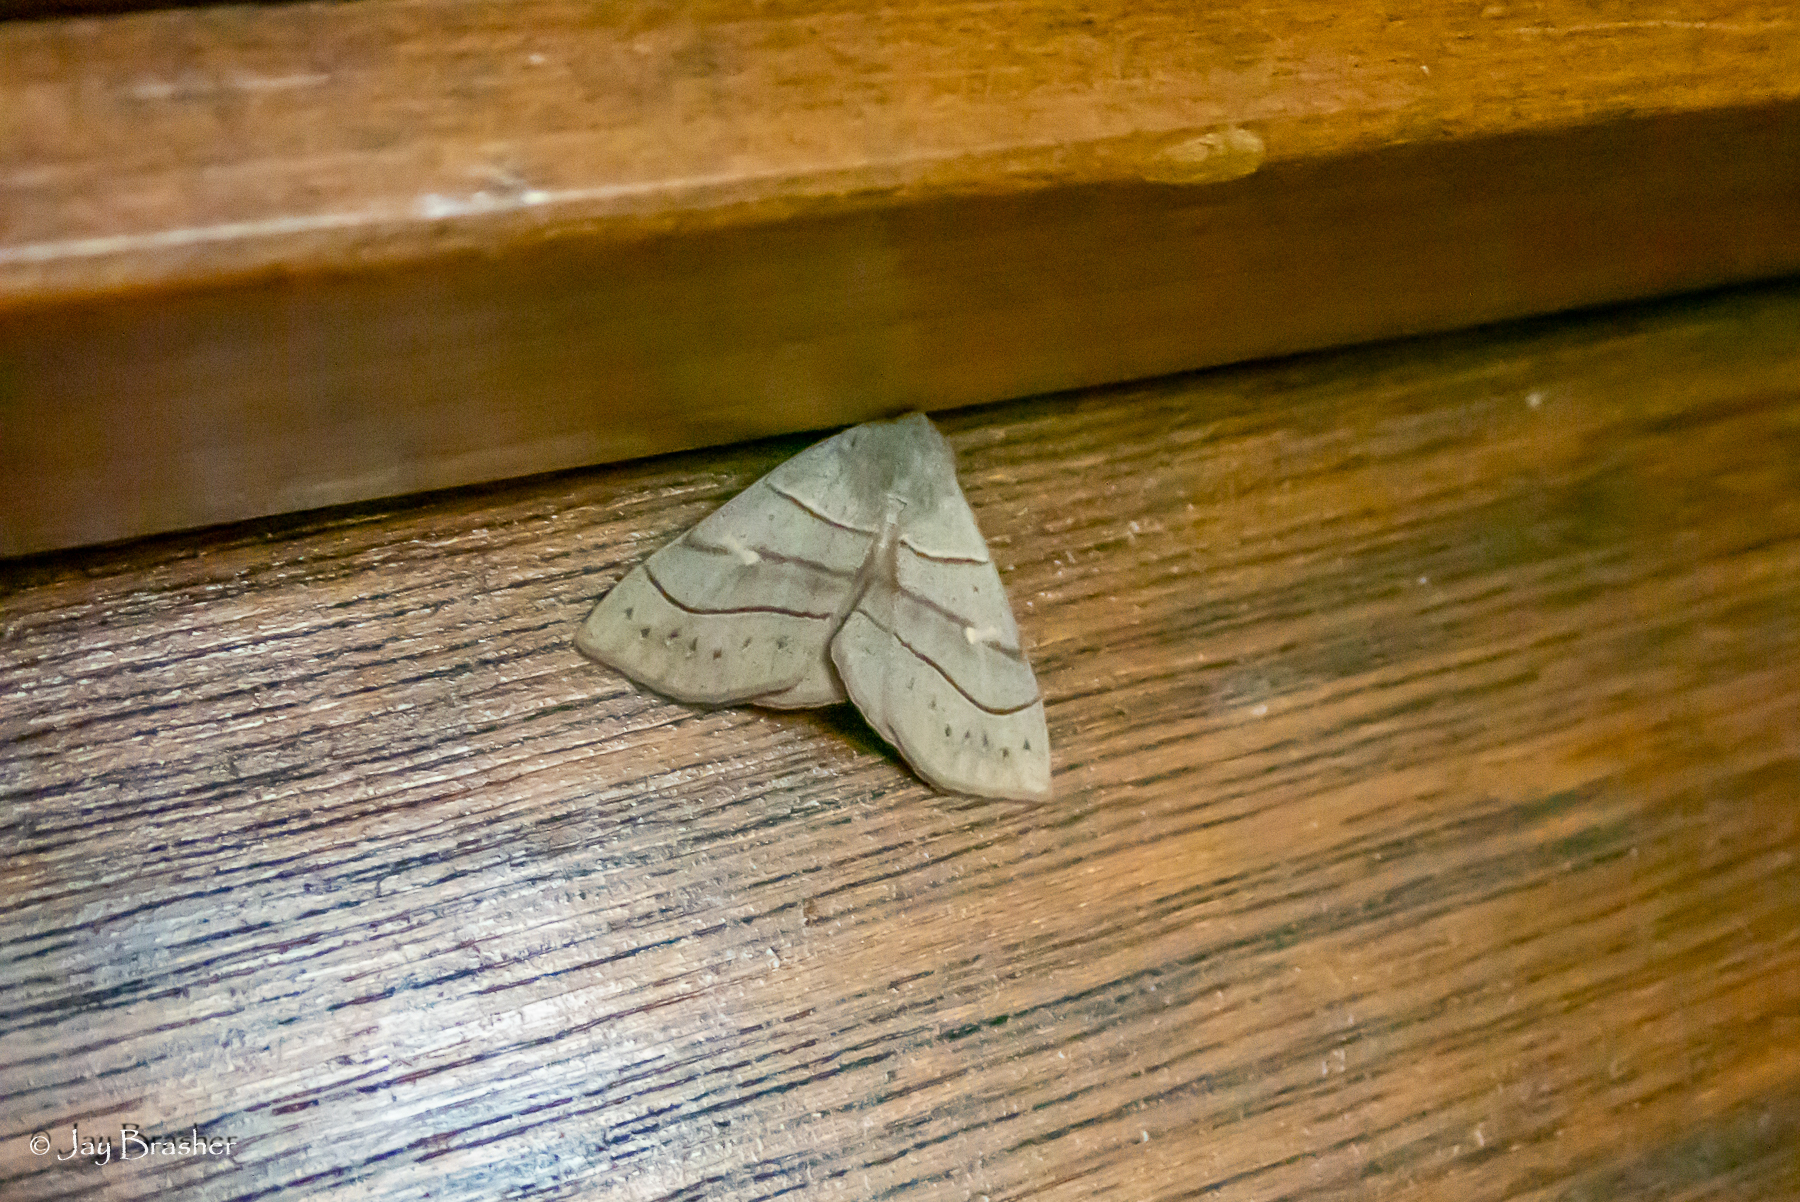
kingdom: Animalia
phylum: Arthropoda
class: Insecta
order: Lepidoptera
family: Erebidae
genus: Panopoda
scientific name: Panopoda rufimargo
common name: Red-lined panopoda moth
